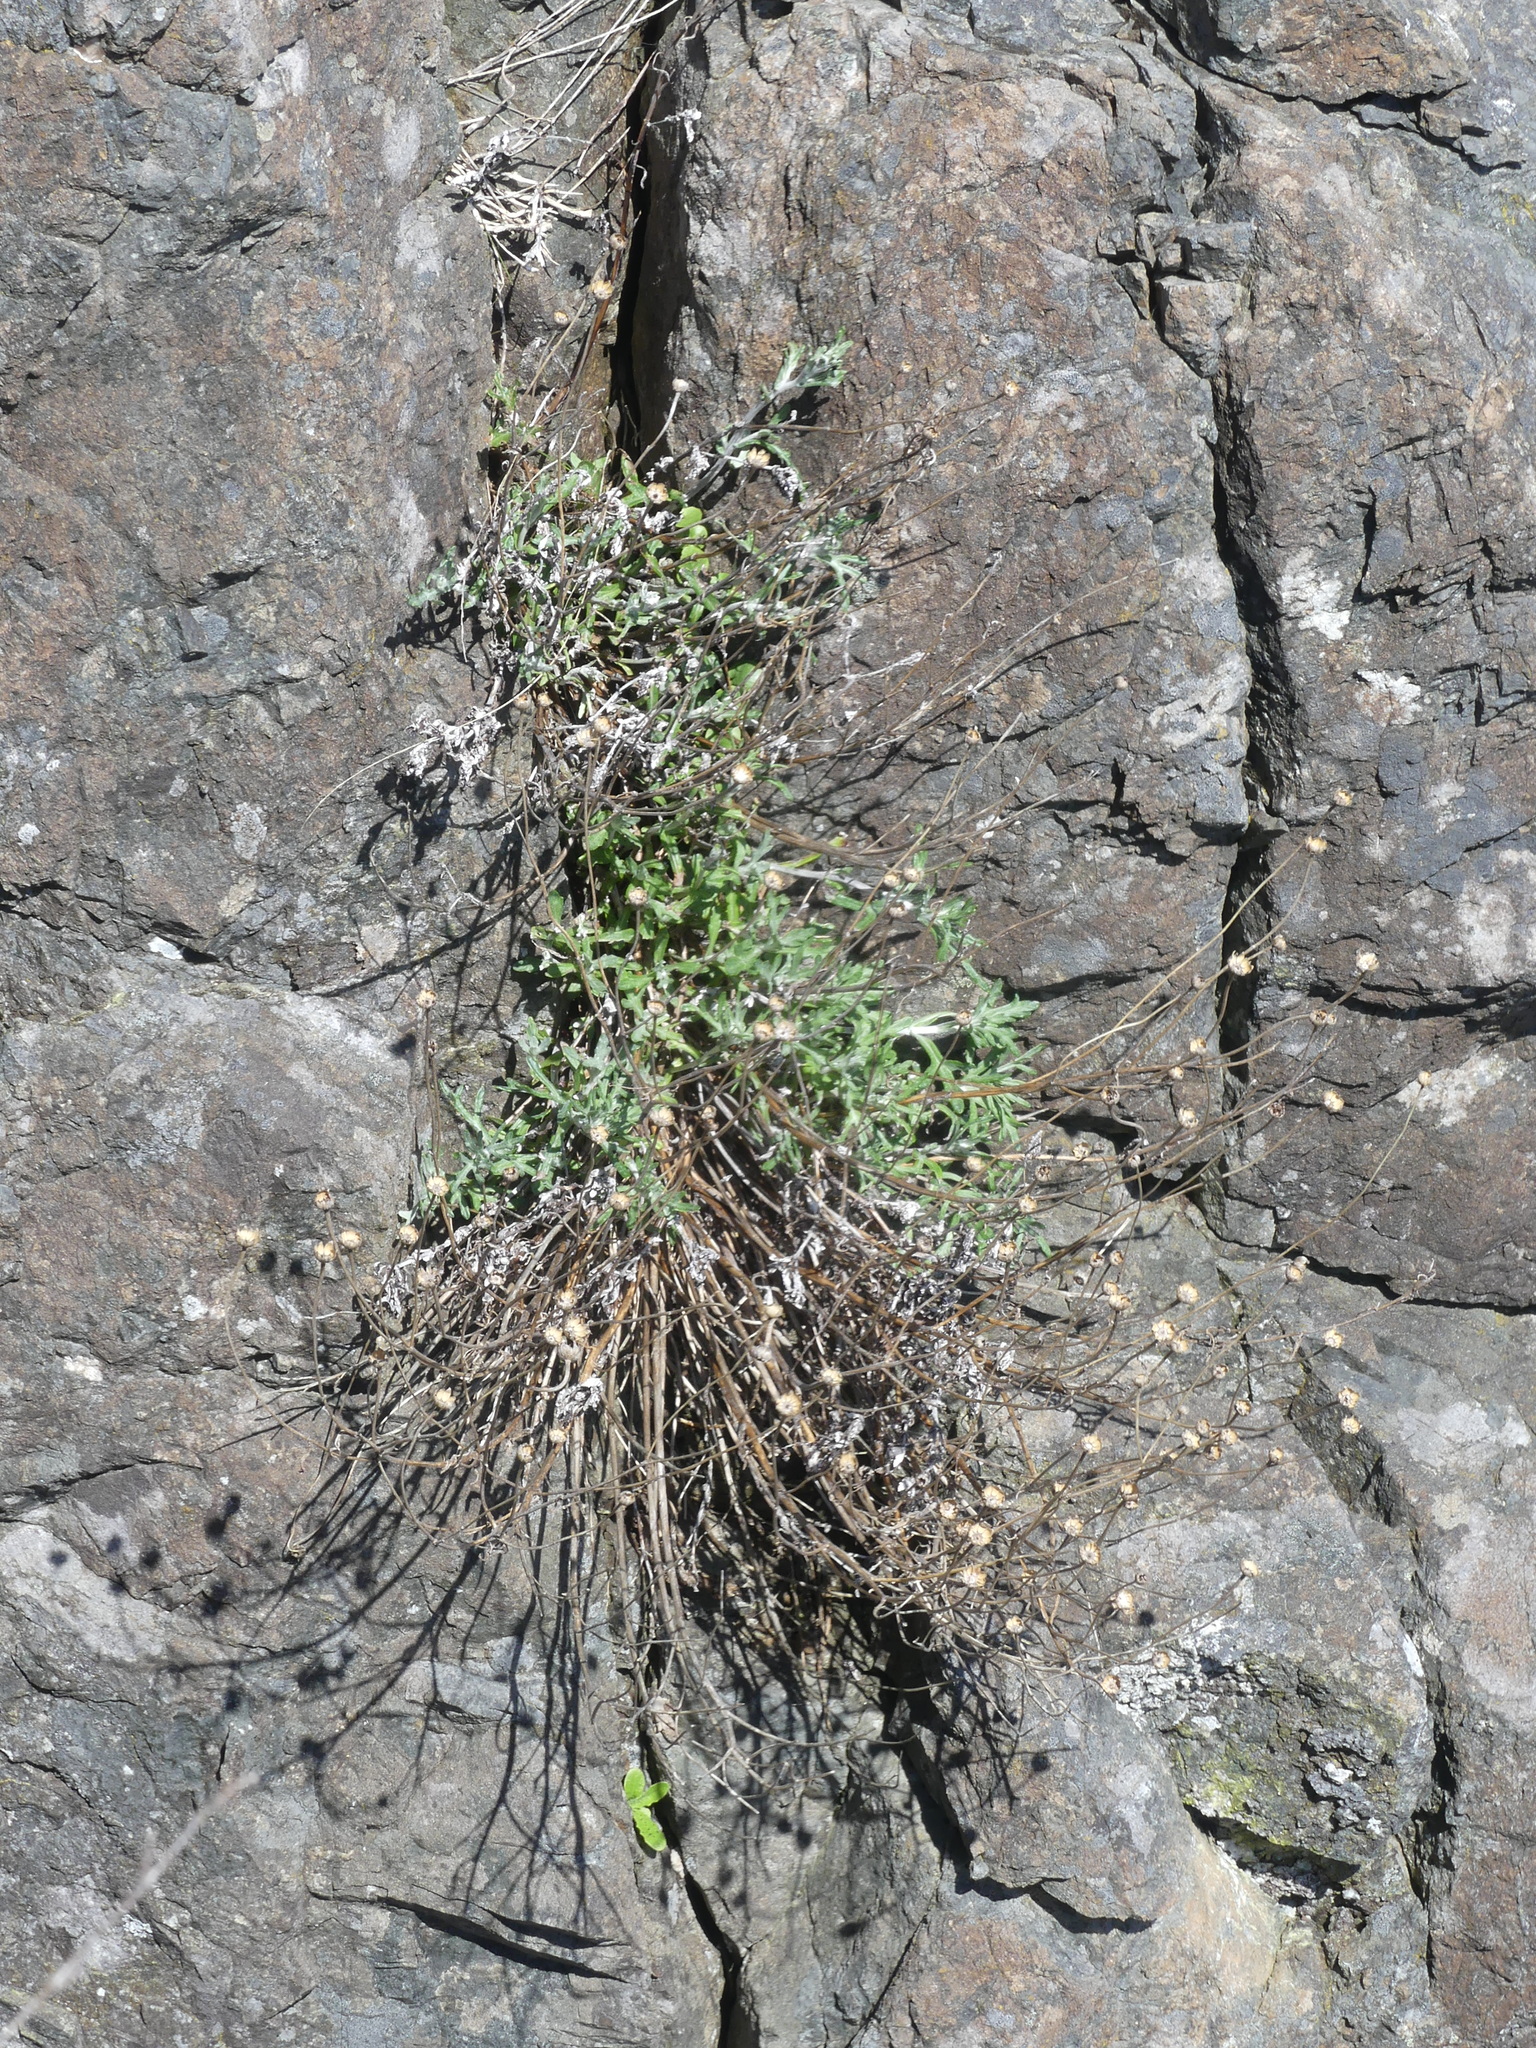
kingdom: Plantae
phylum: Tracheophyta
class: Magnoliopsida
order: Asterales
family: Asteraceae
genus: Eriophyllum
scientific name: Eriophyllum lanatum
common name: Common woolly-sunflower
